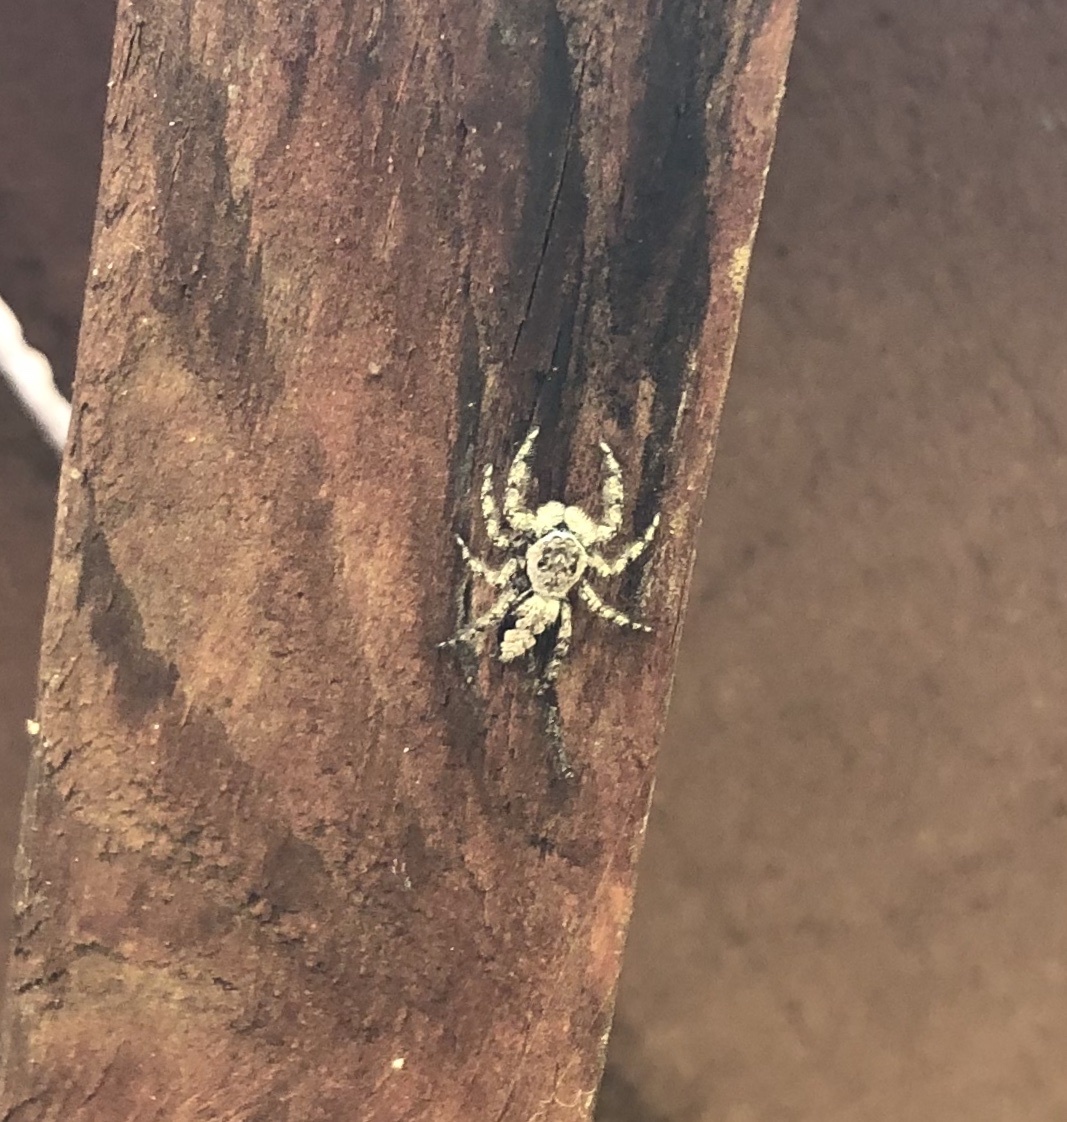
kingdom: Animalia
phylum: Arthropoda
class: Arachnida
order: Araneae
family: Salticidae
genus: Platycryptus
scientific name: Platycryptus undatus
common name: Tan jumping spider
